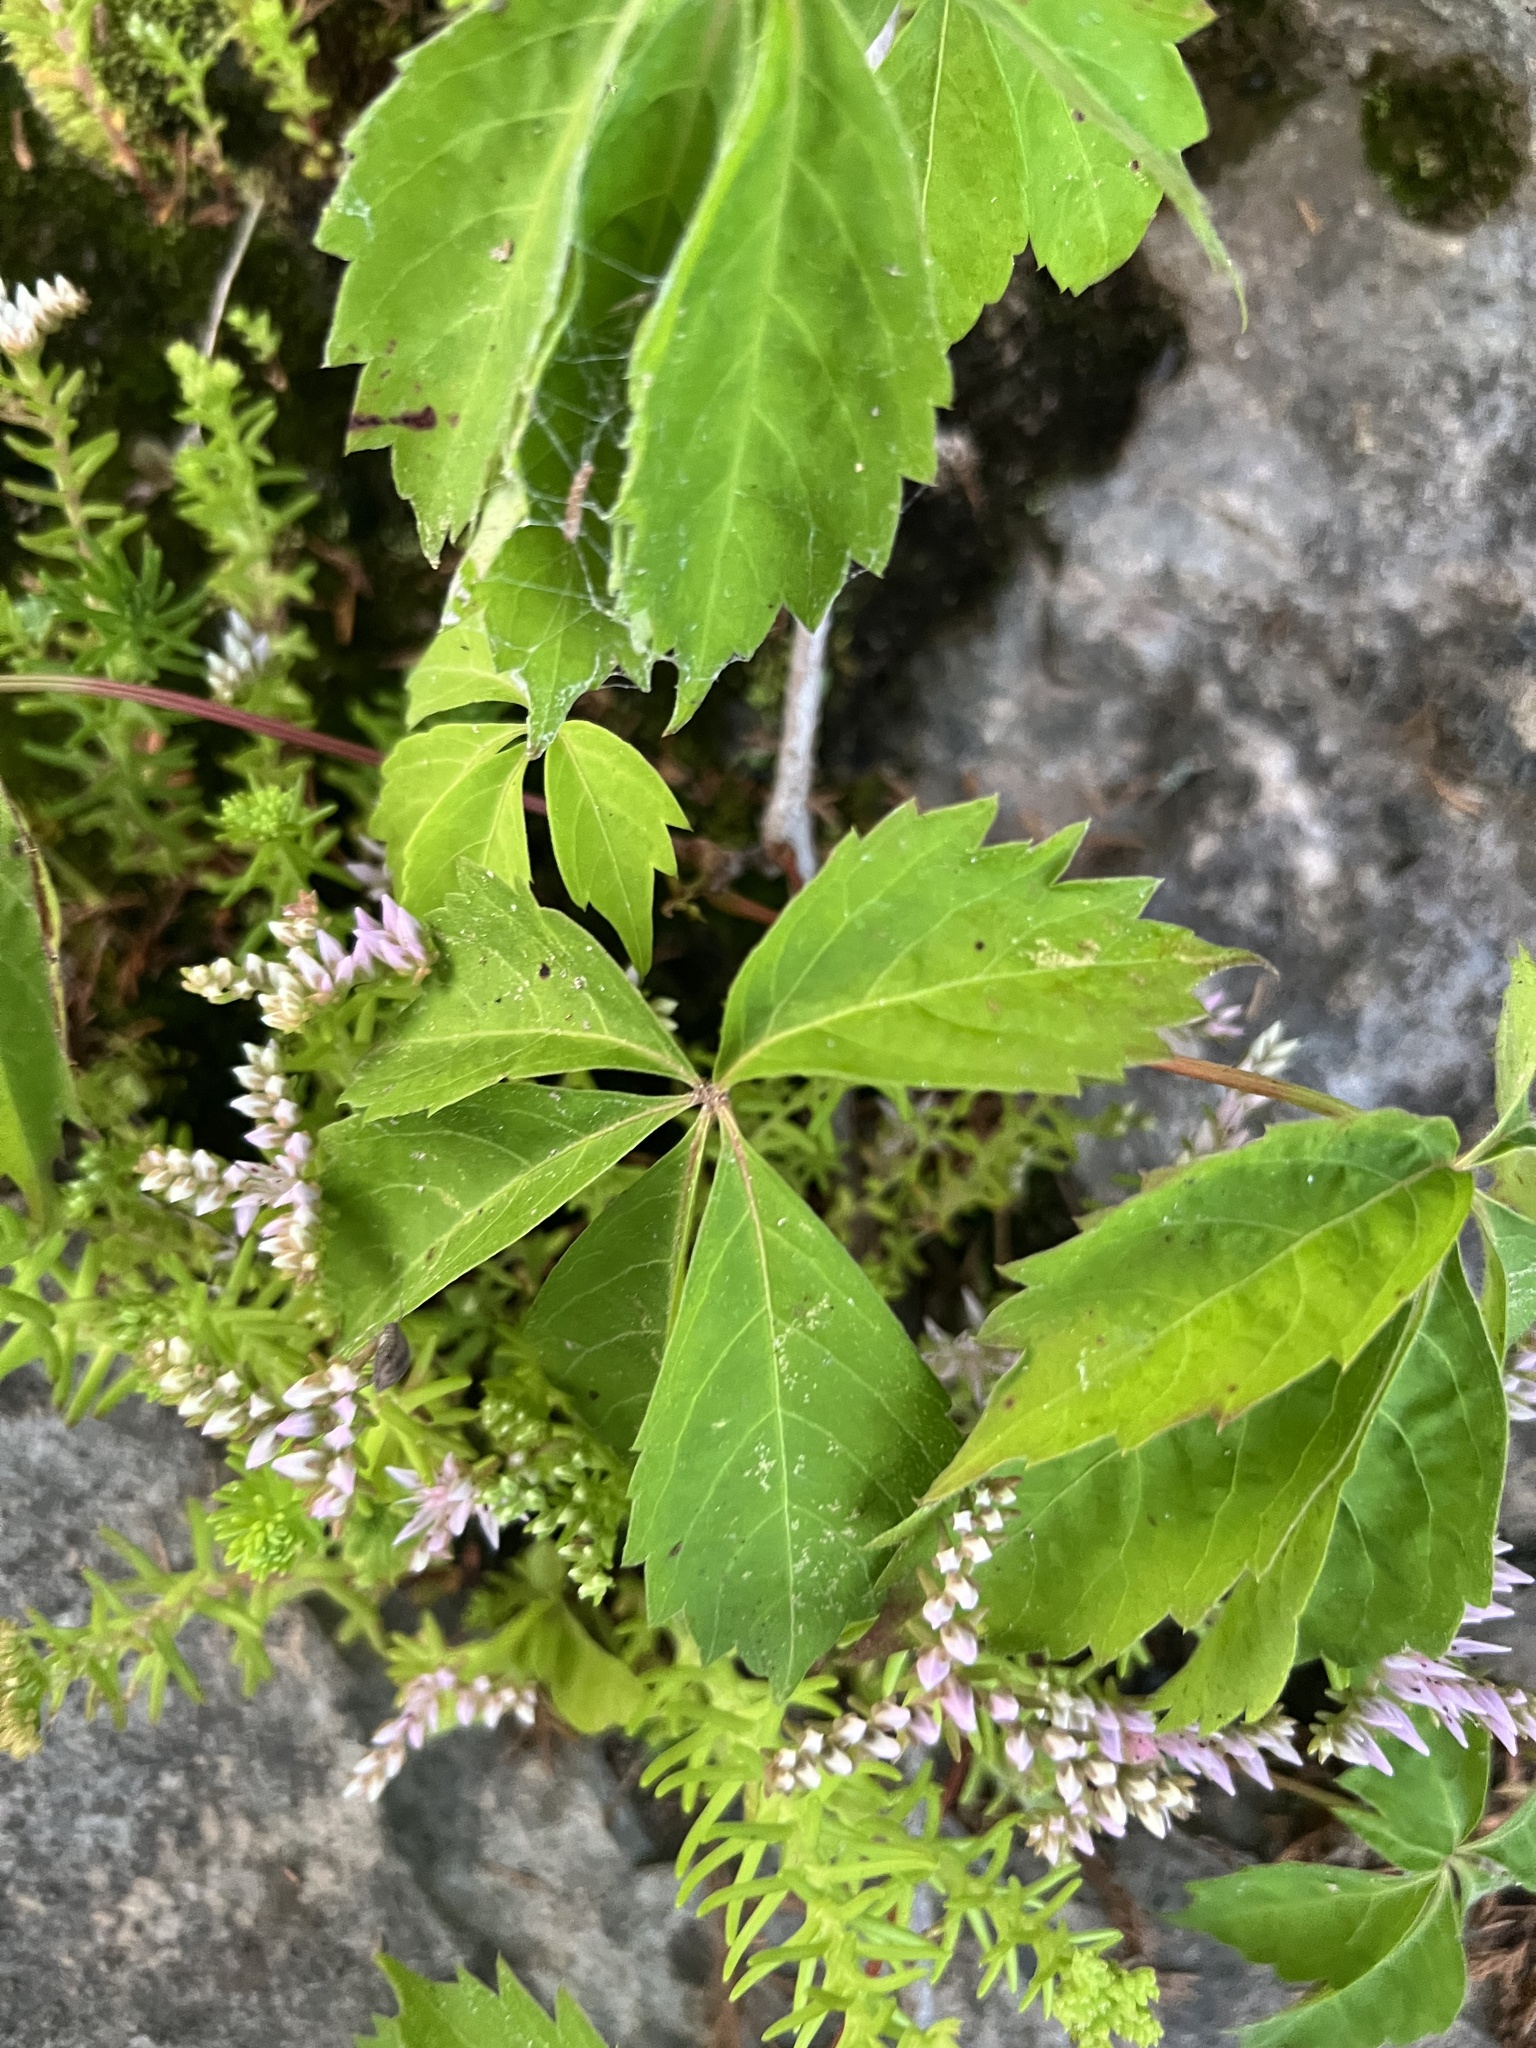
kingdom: Plantae
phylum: Tracheophyta
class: Magnoliopsida
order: Vitales
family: Vitaceae
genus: Parthenocissus
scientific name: Parthenocissus quinquefolia
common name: Virginia-creeper
